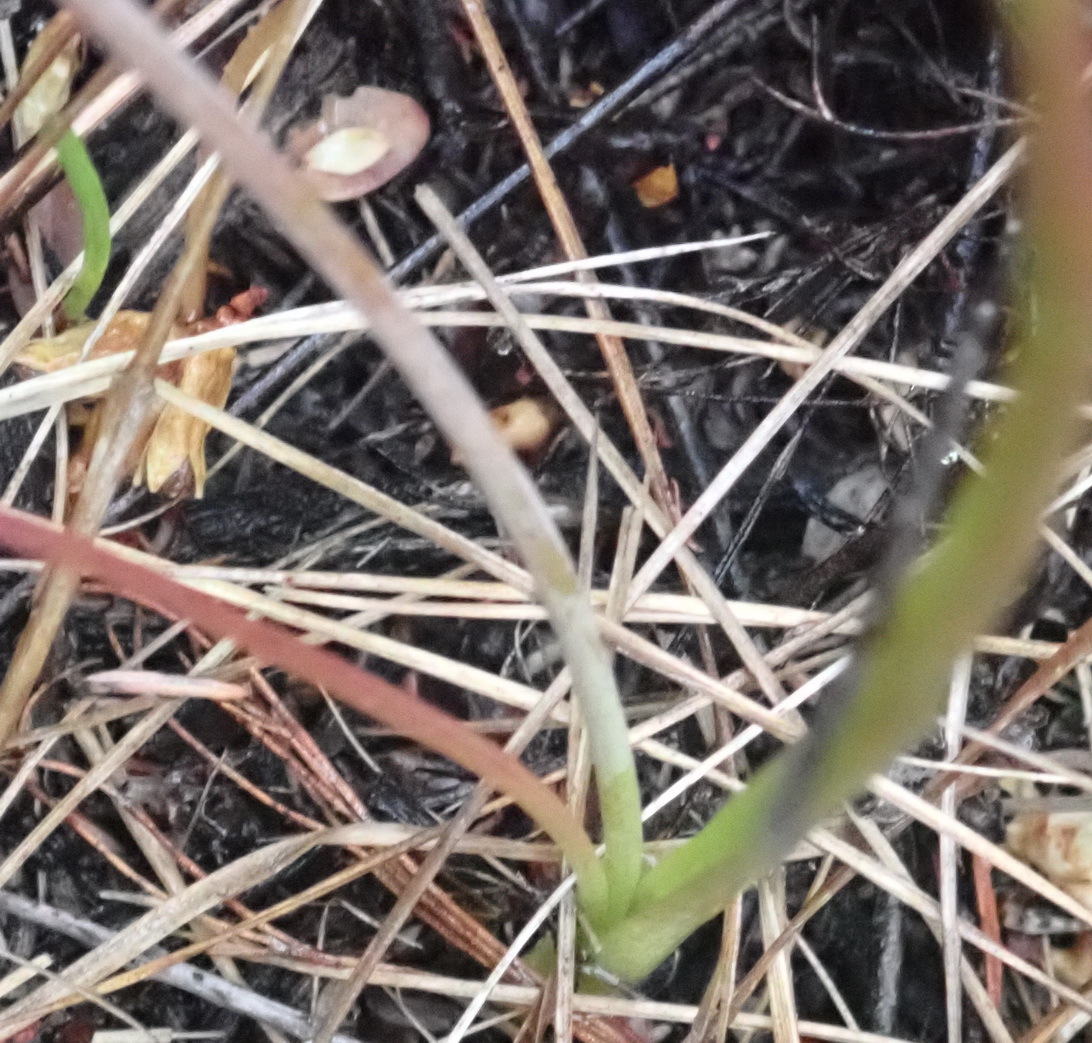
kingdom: Plantae
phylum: Tracheophyta
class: Liliopsida
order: Asparagales
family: Asparagaceae
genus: Lachenalia
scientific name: Lachenalia youngii
